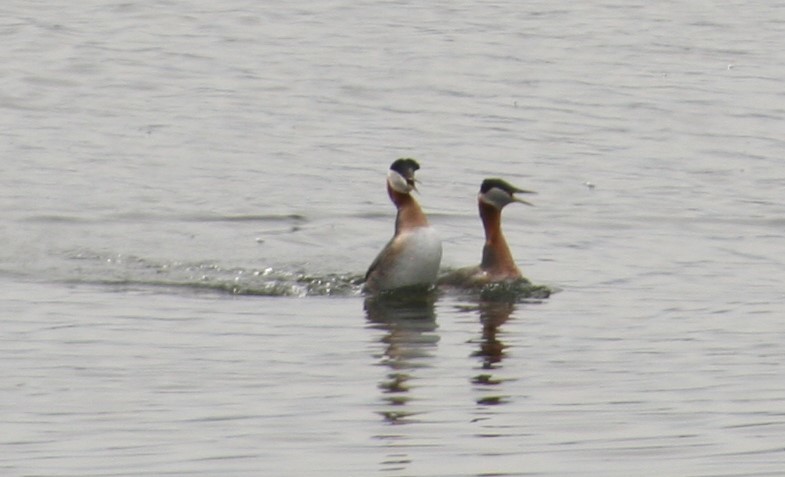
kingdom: Animalia
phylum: Chordata
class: Aves
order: Podicipediformes
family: Podicipedidae
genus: Podiceps
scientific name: Podiceps grisegena
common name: Red-necked grebe
